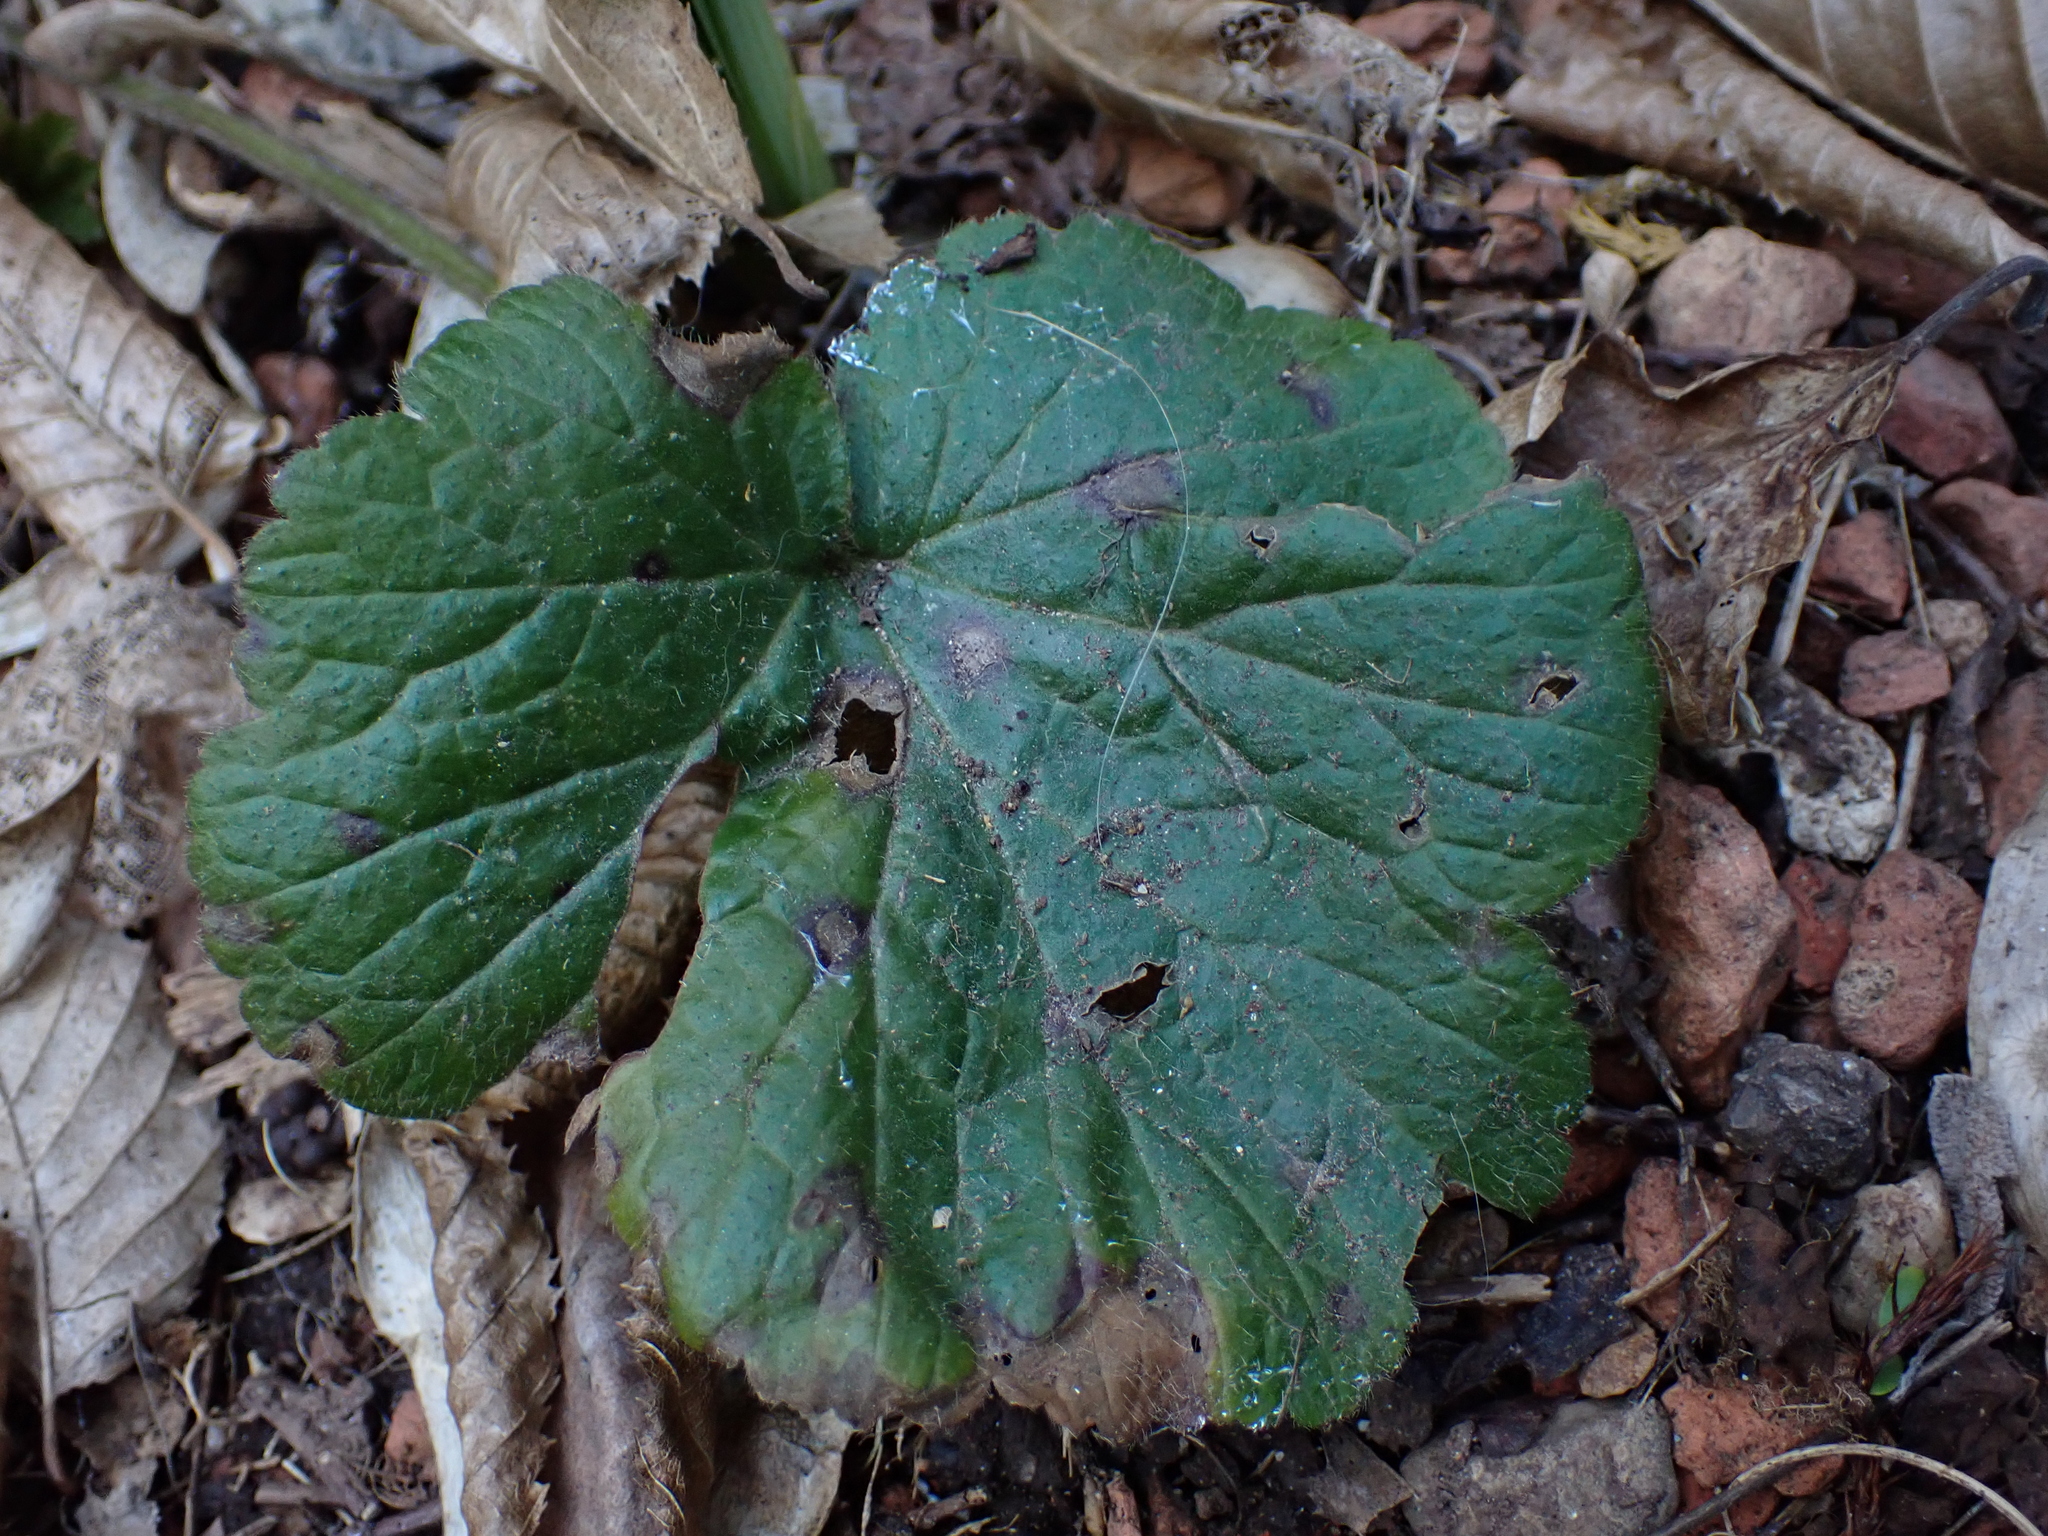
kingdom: Plantae
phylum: Tracheophyta
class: Magnoliopsida
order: Rosales
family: Rosaceae
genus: Geum
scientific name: Geum urbanum
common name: Wood avens
